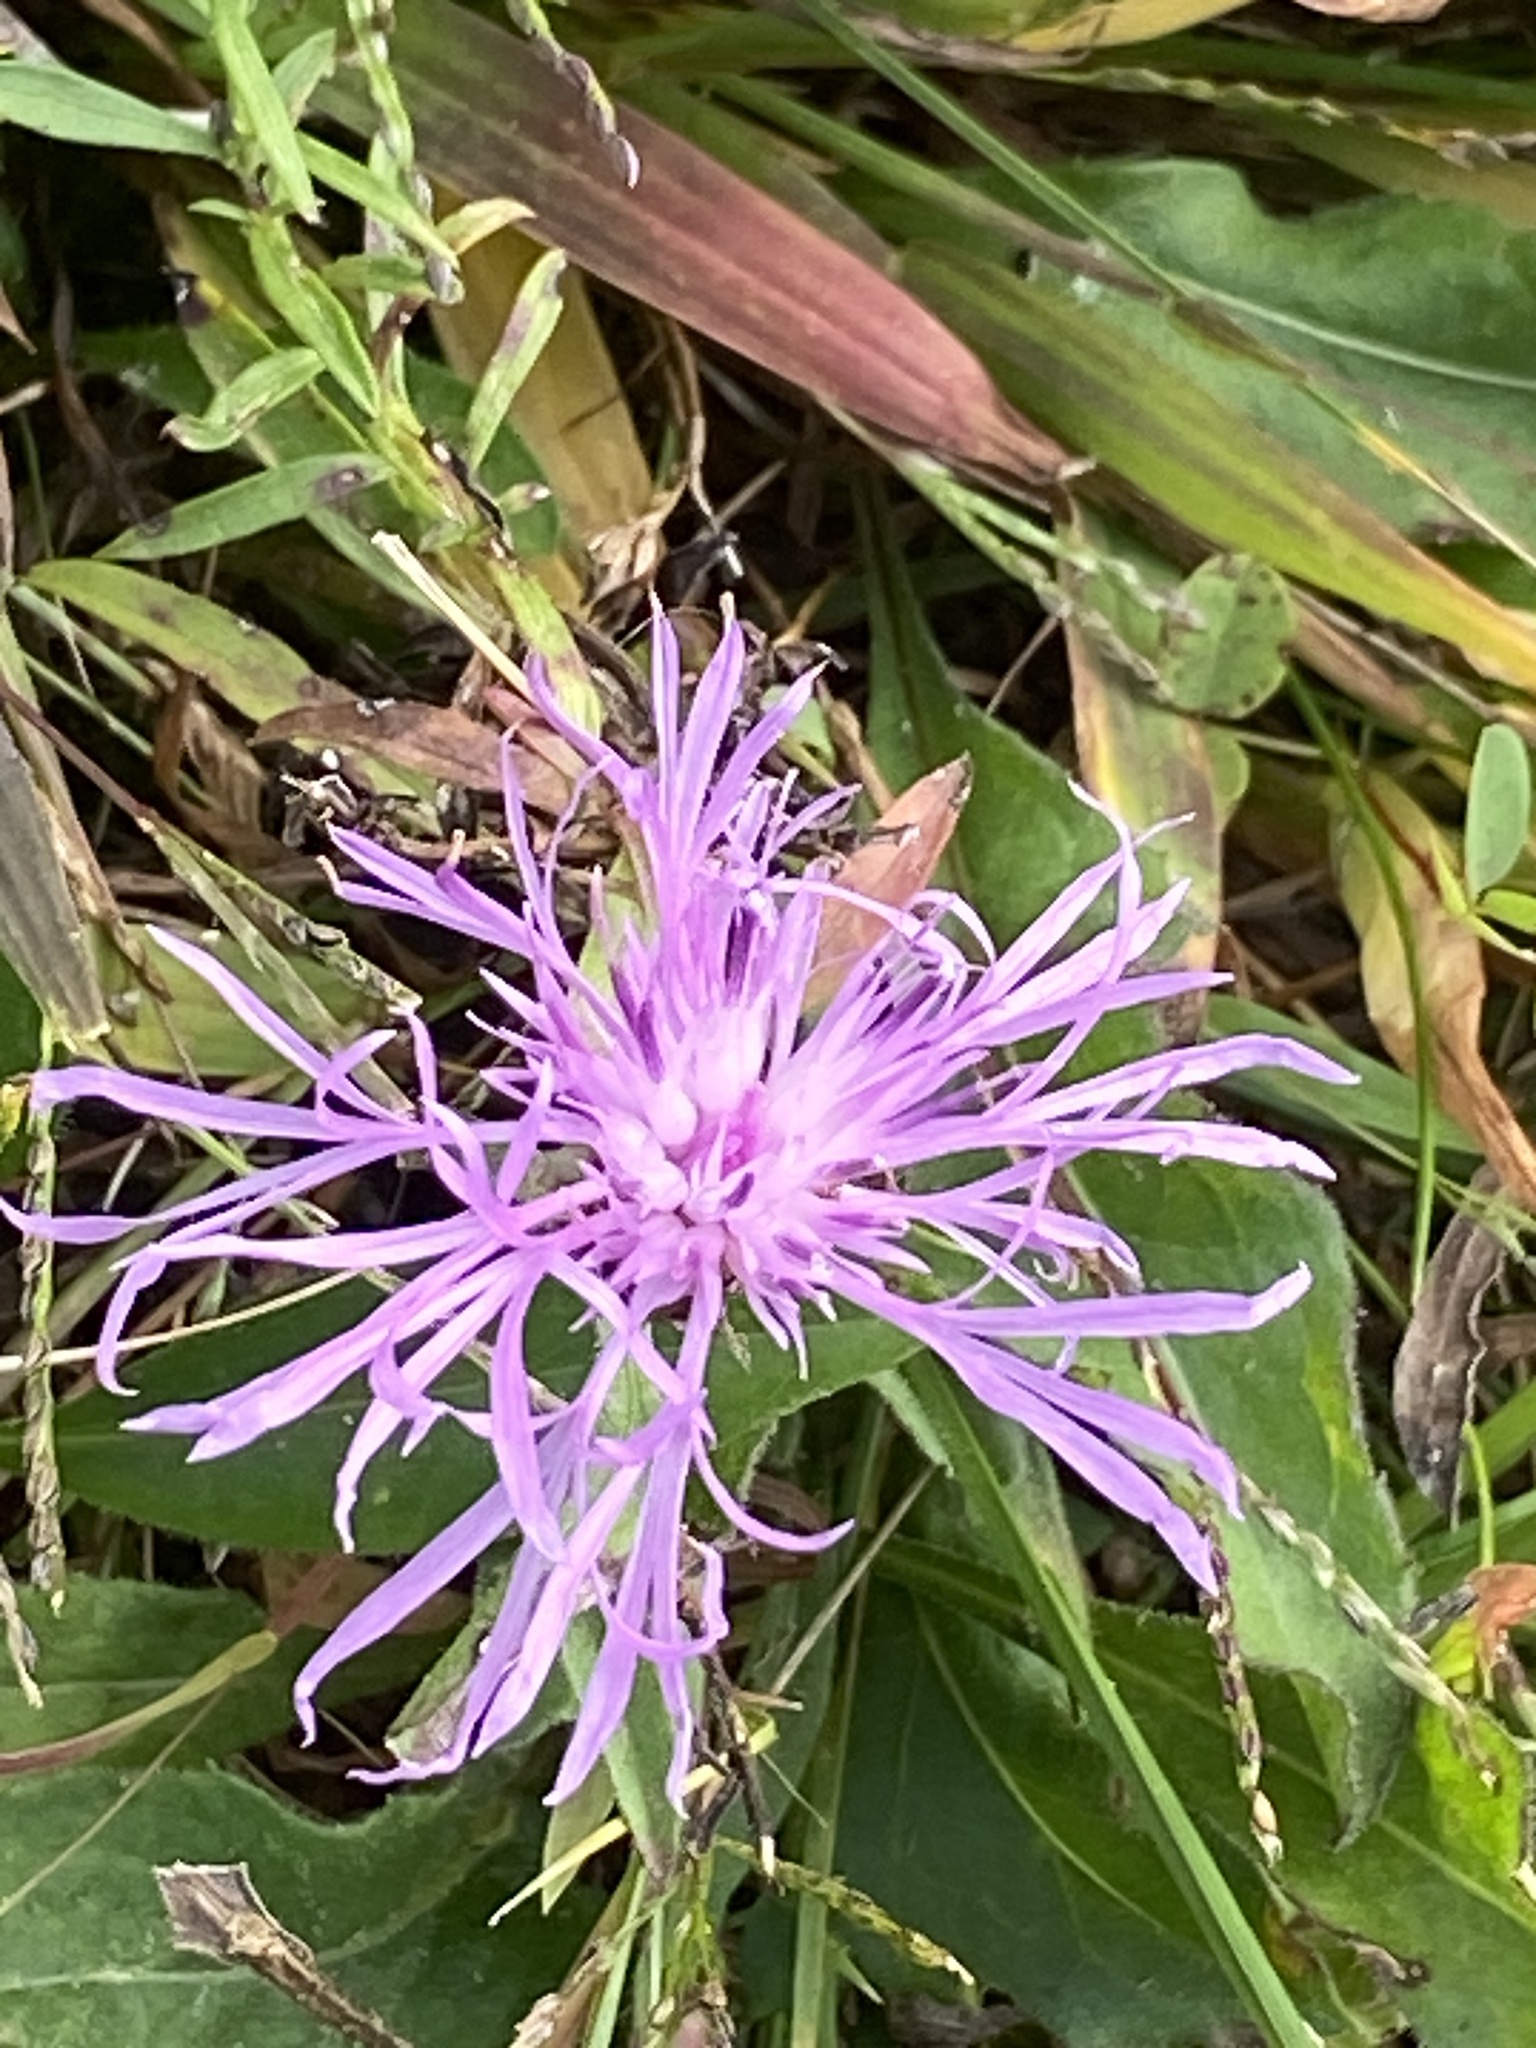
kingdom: Plantae
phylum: Tracheophyta
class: Magnoliopsida
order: Asterales
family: Asteraceae
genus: Centaurea
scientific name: Centaurea jacea
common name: Brown knapweed
